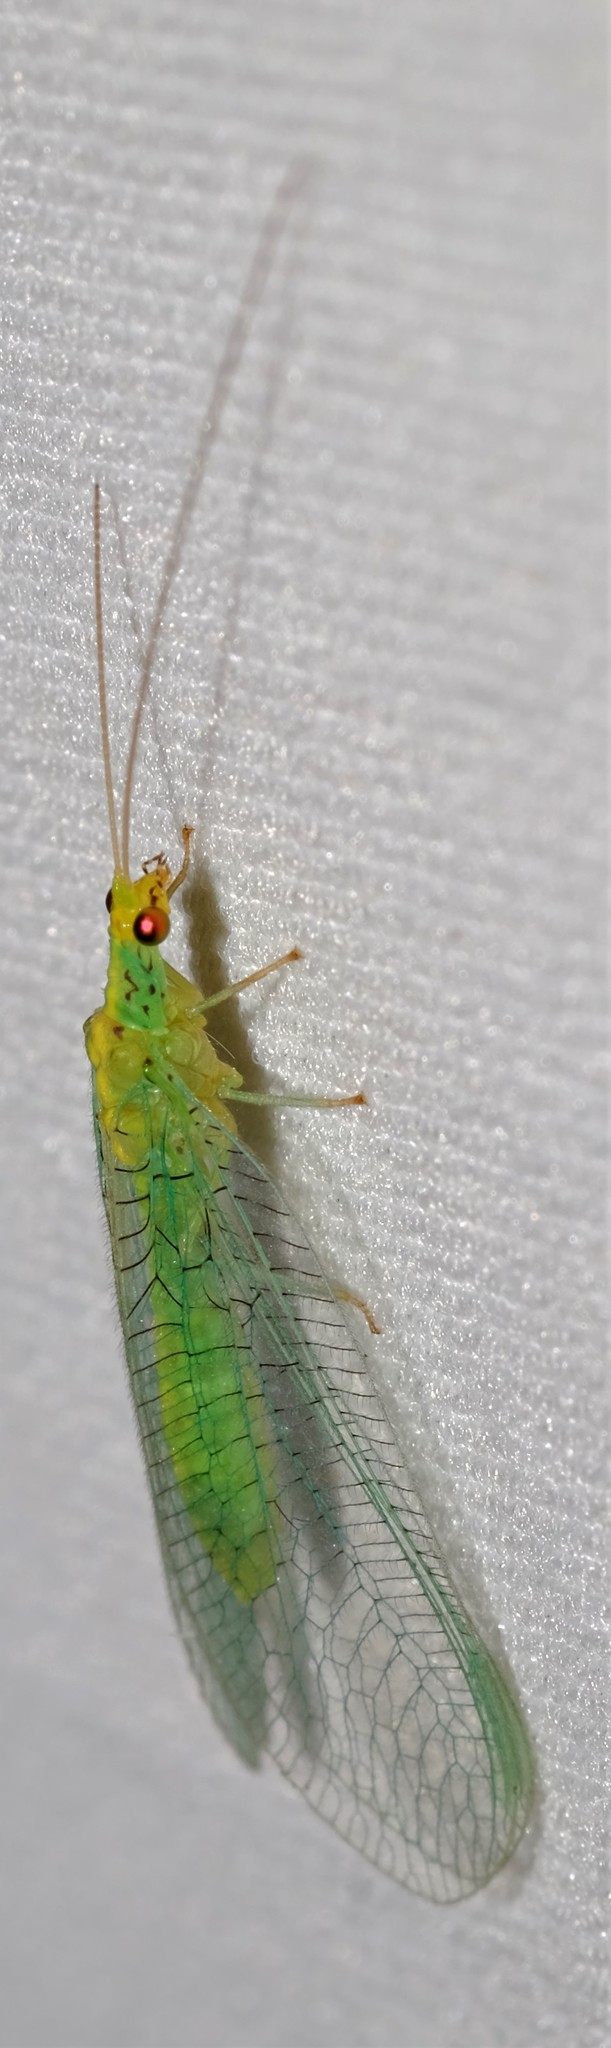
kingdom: Animalia
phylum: Arthropoda
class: Insecta
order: Neuroptera
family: Chrysopidae
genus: Pseudomallada
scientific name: Pseudomallada edwardsi
